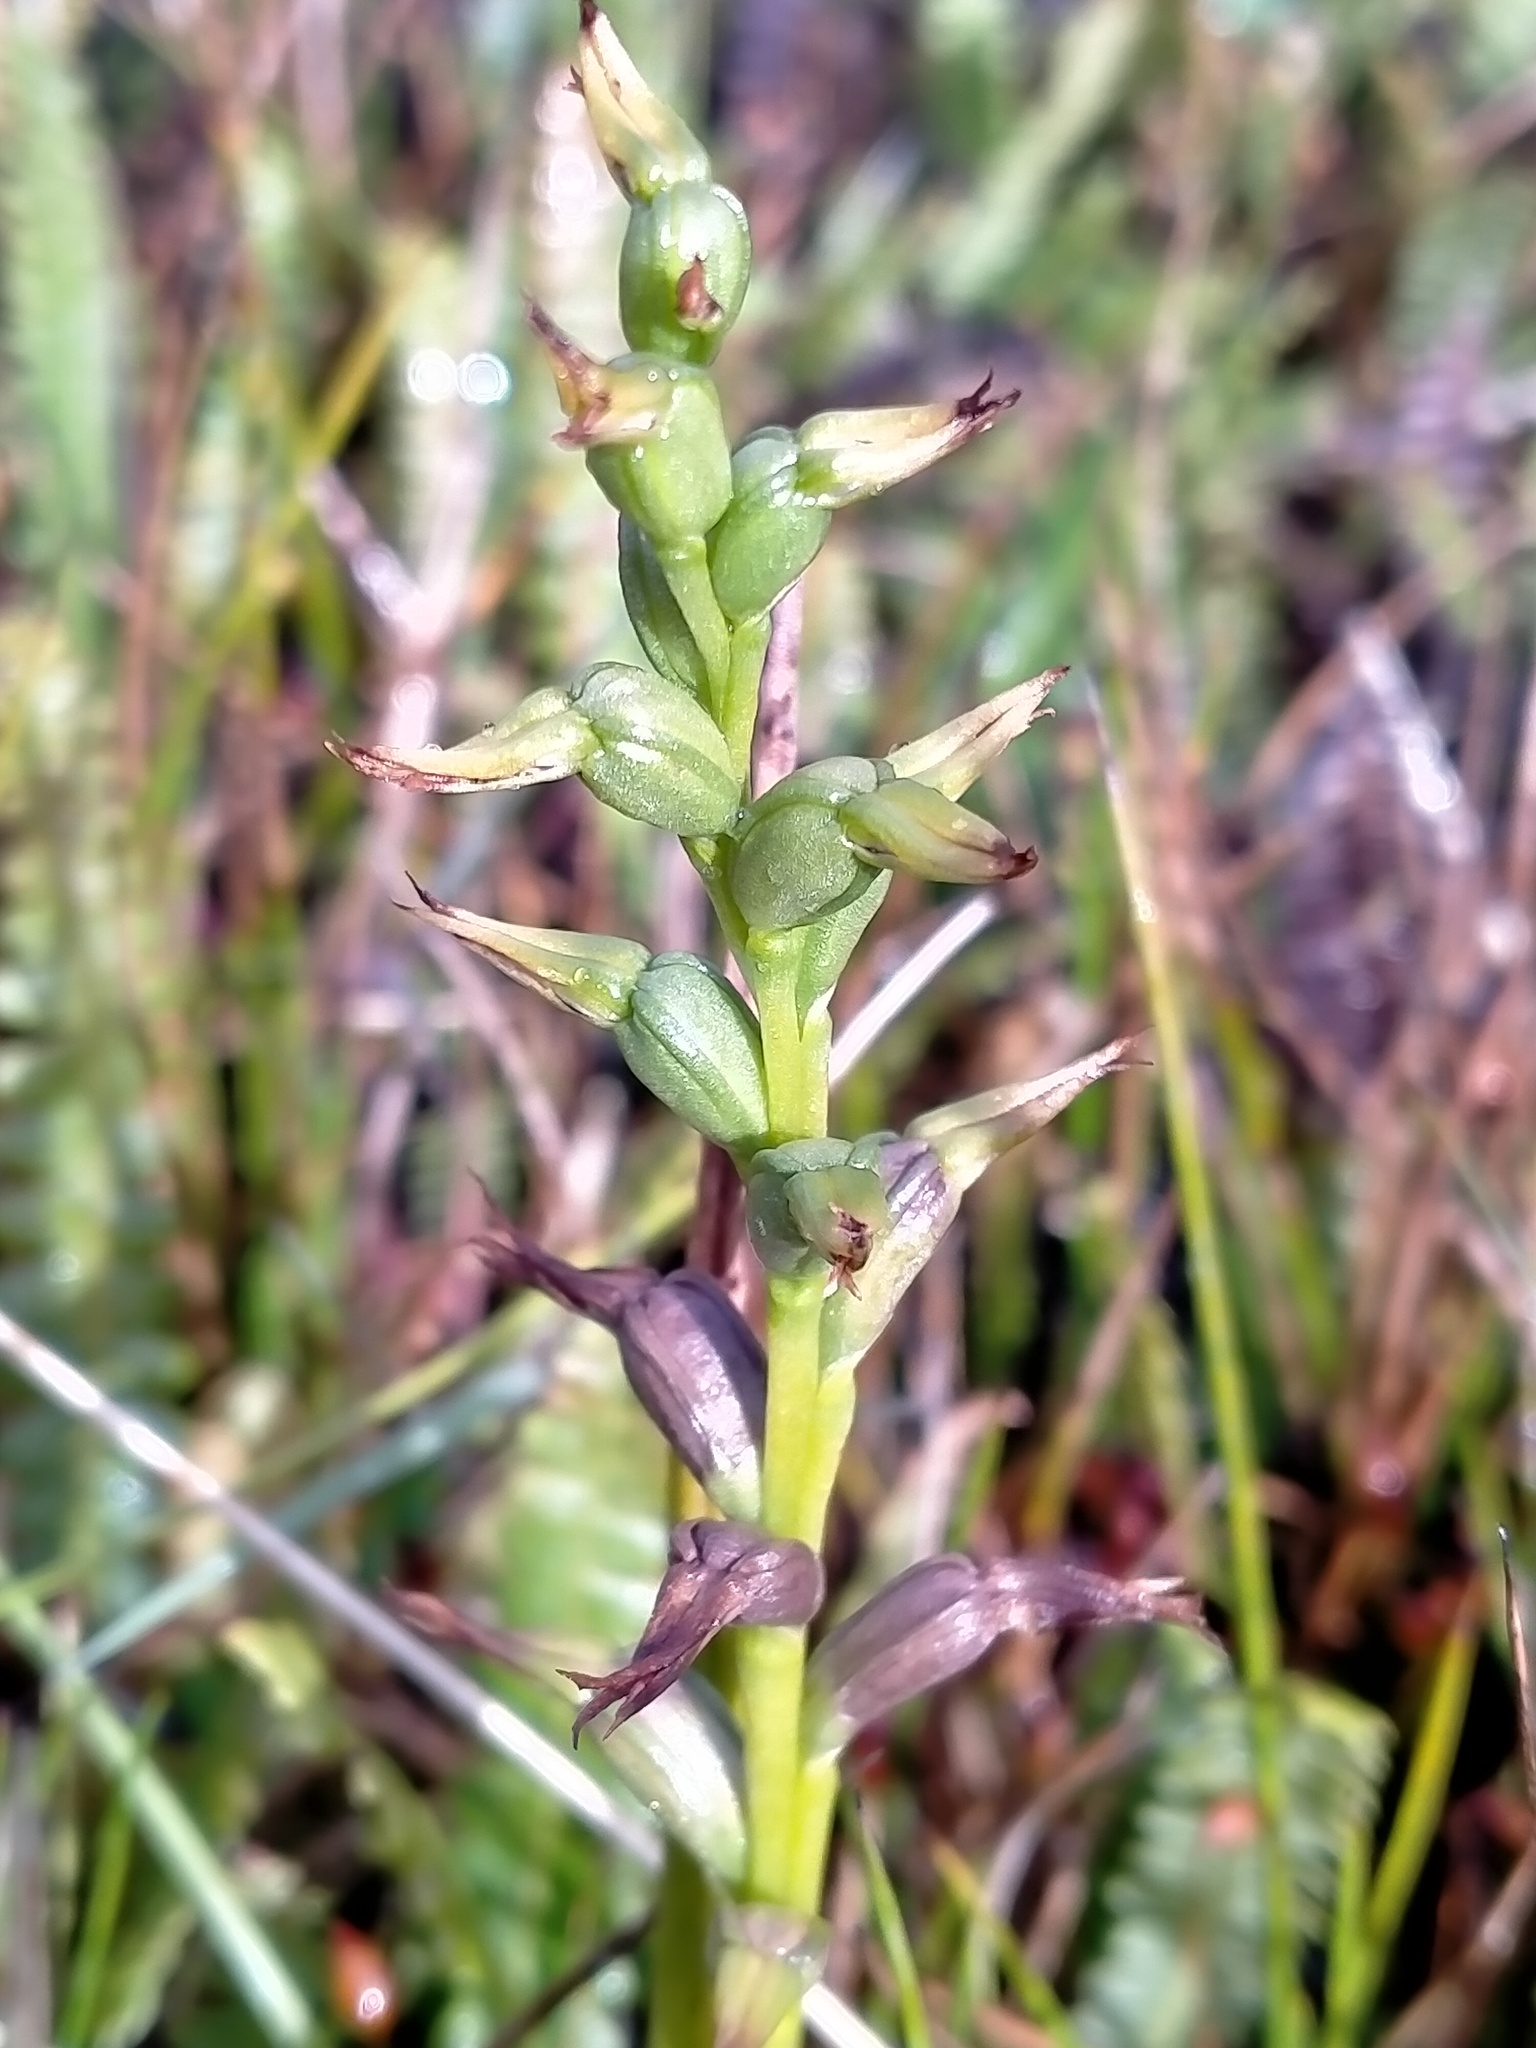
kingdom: Plantae
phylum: Tracheophyta
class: Liliopsida
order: Asparagales
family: Orchidaceae
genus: Prasophyllum
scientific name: Prasophyllum colensoi
